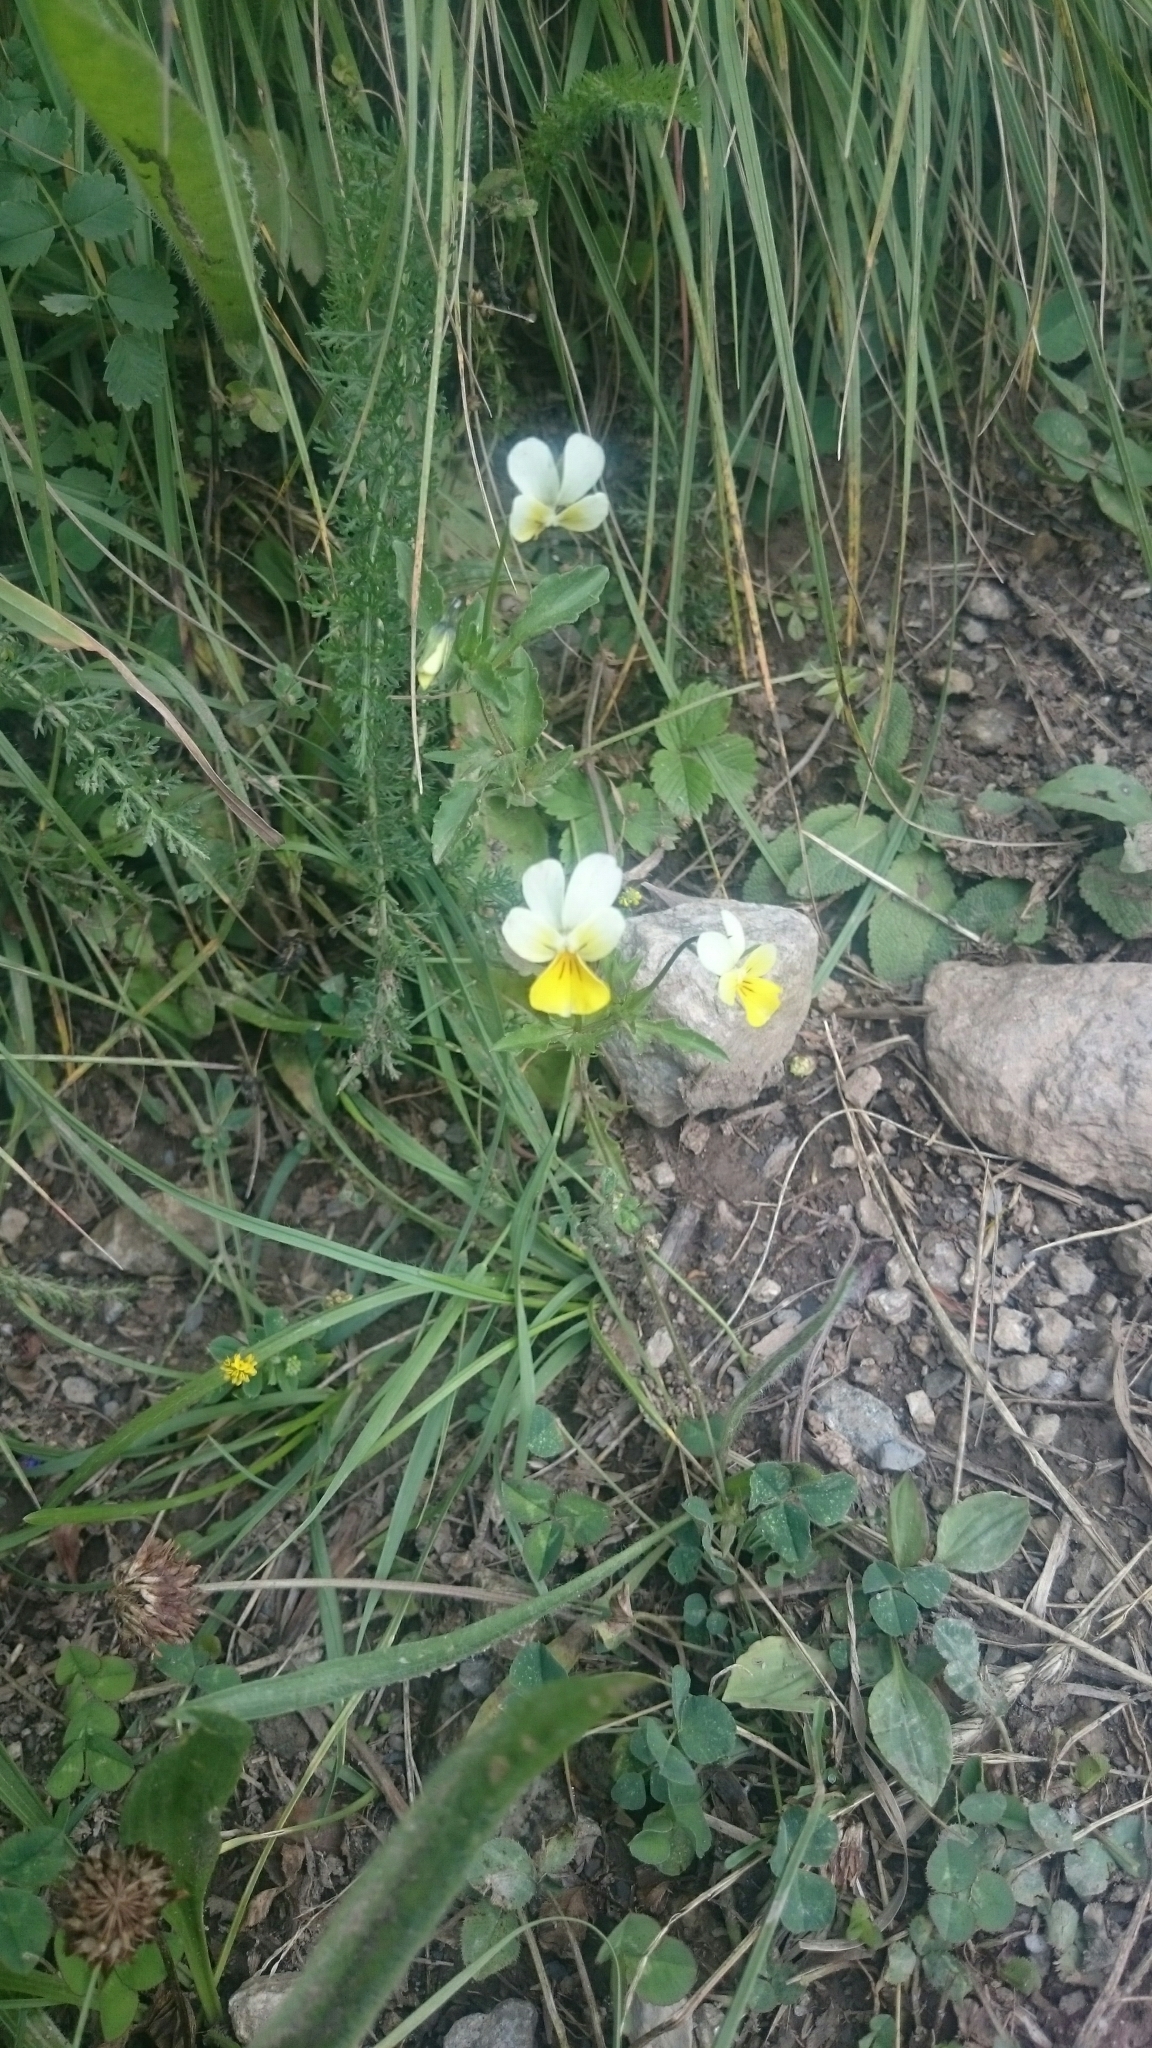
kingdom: Plantae
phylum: Tracheophyta
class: Magnoliopsida
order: Malpighiales
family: Violaceae
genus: Viola
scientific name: Viola tricolor
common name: Pansy
